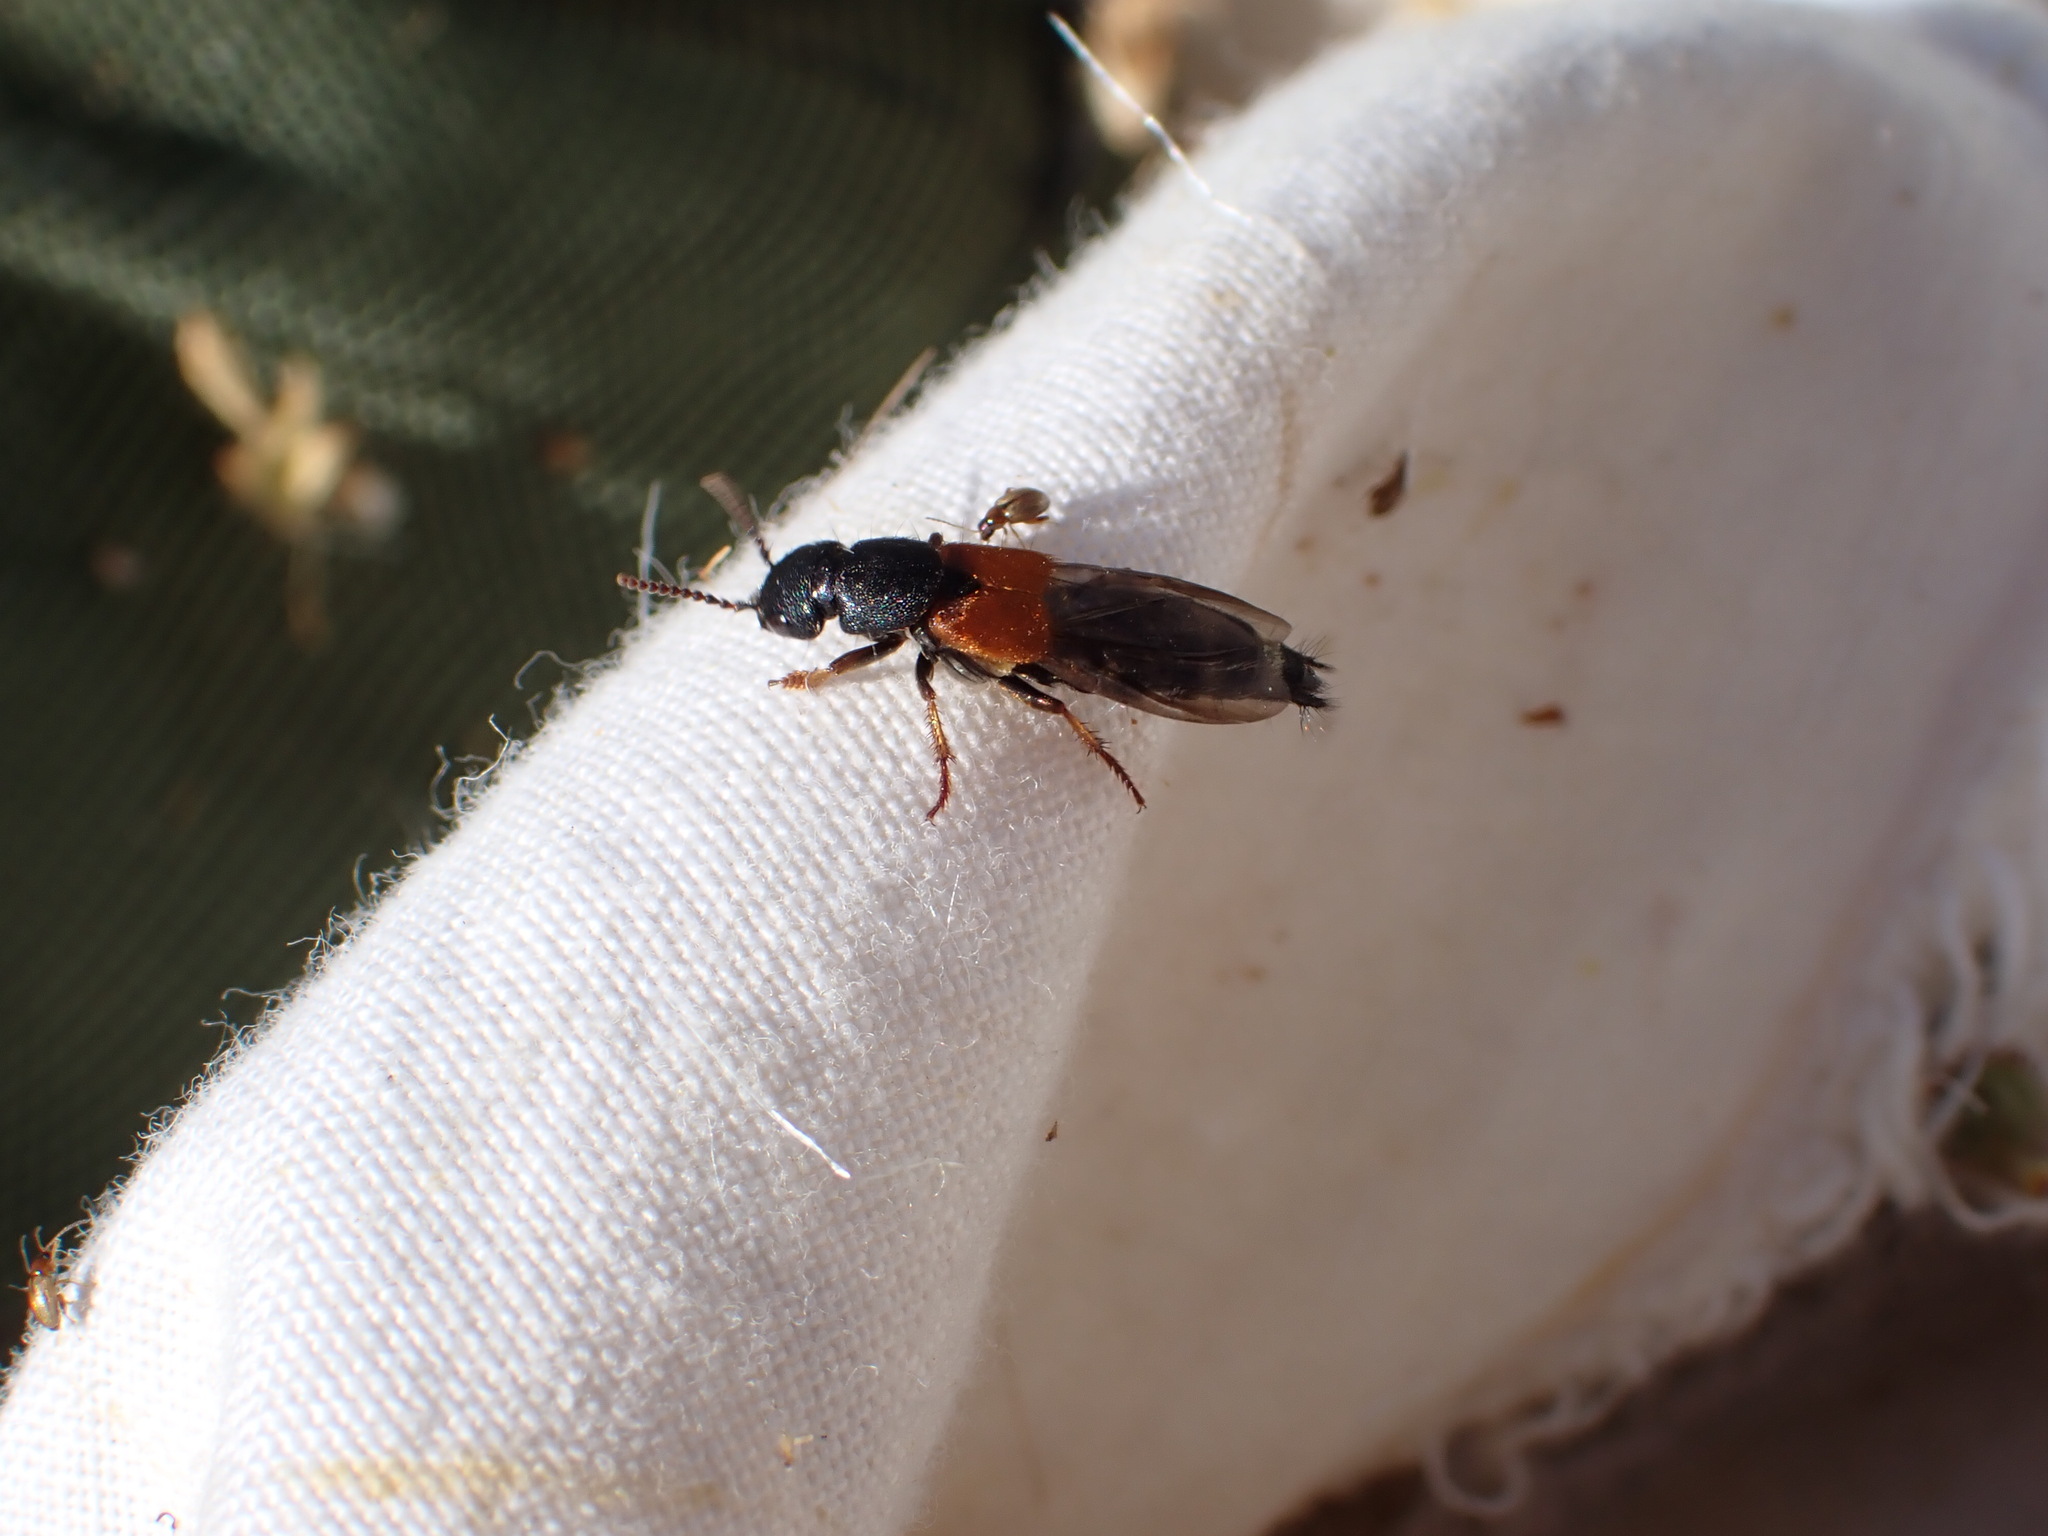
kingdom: Animalia
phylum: Arthropoda
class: Insecta
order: Coleoptera
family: Staphylinidae
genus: Platydracus
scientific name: Platydracus stercorarius
